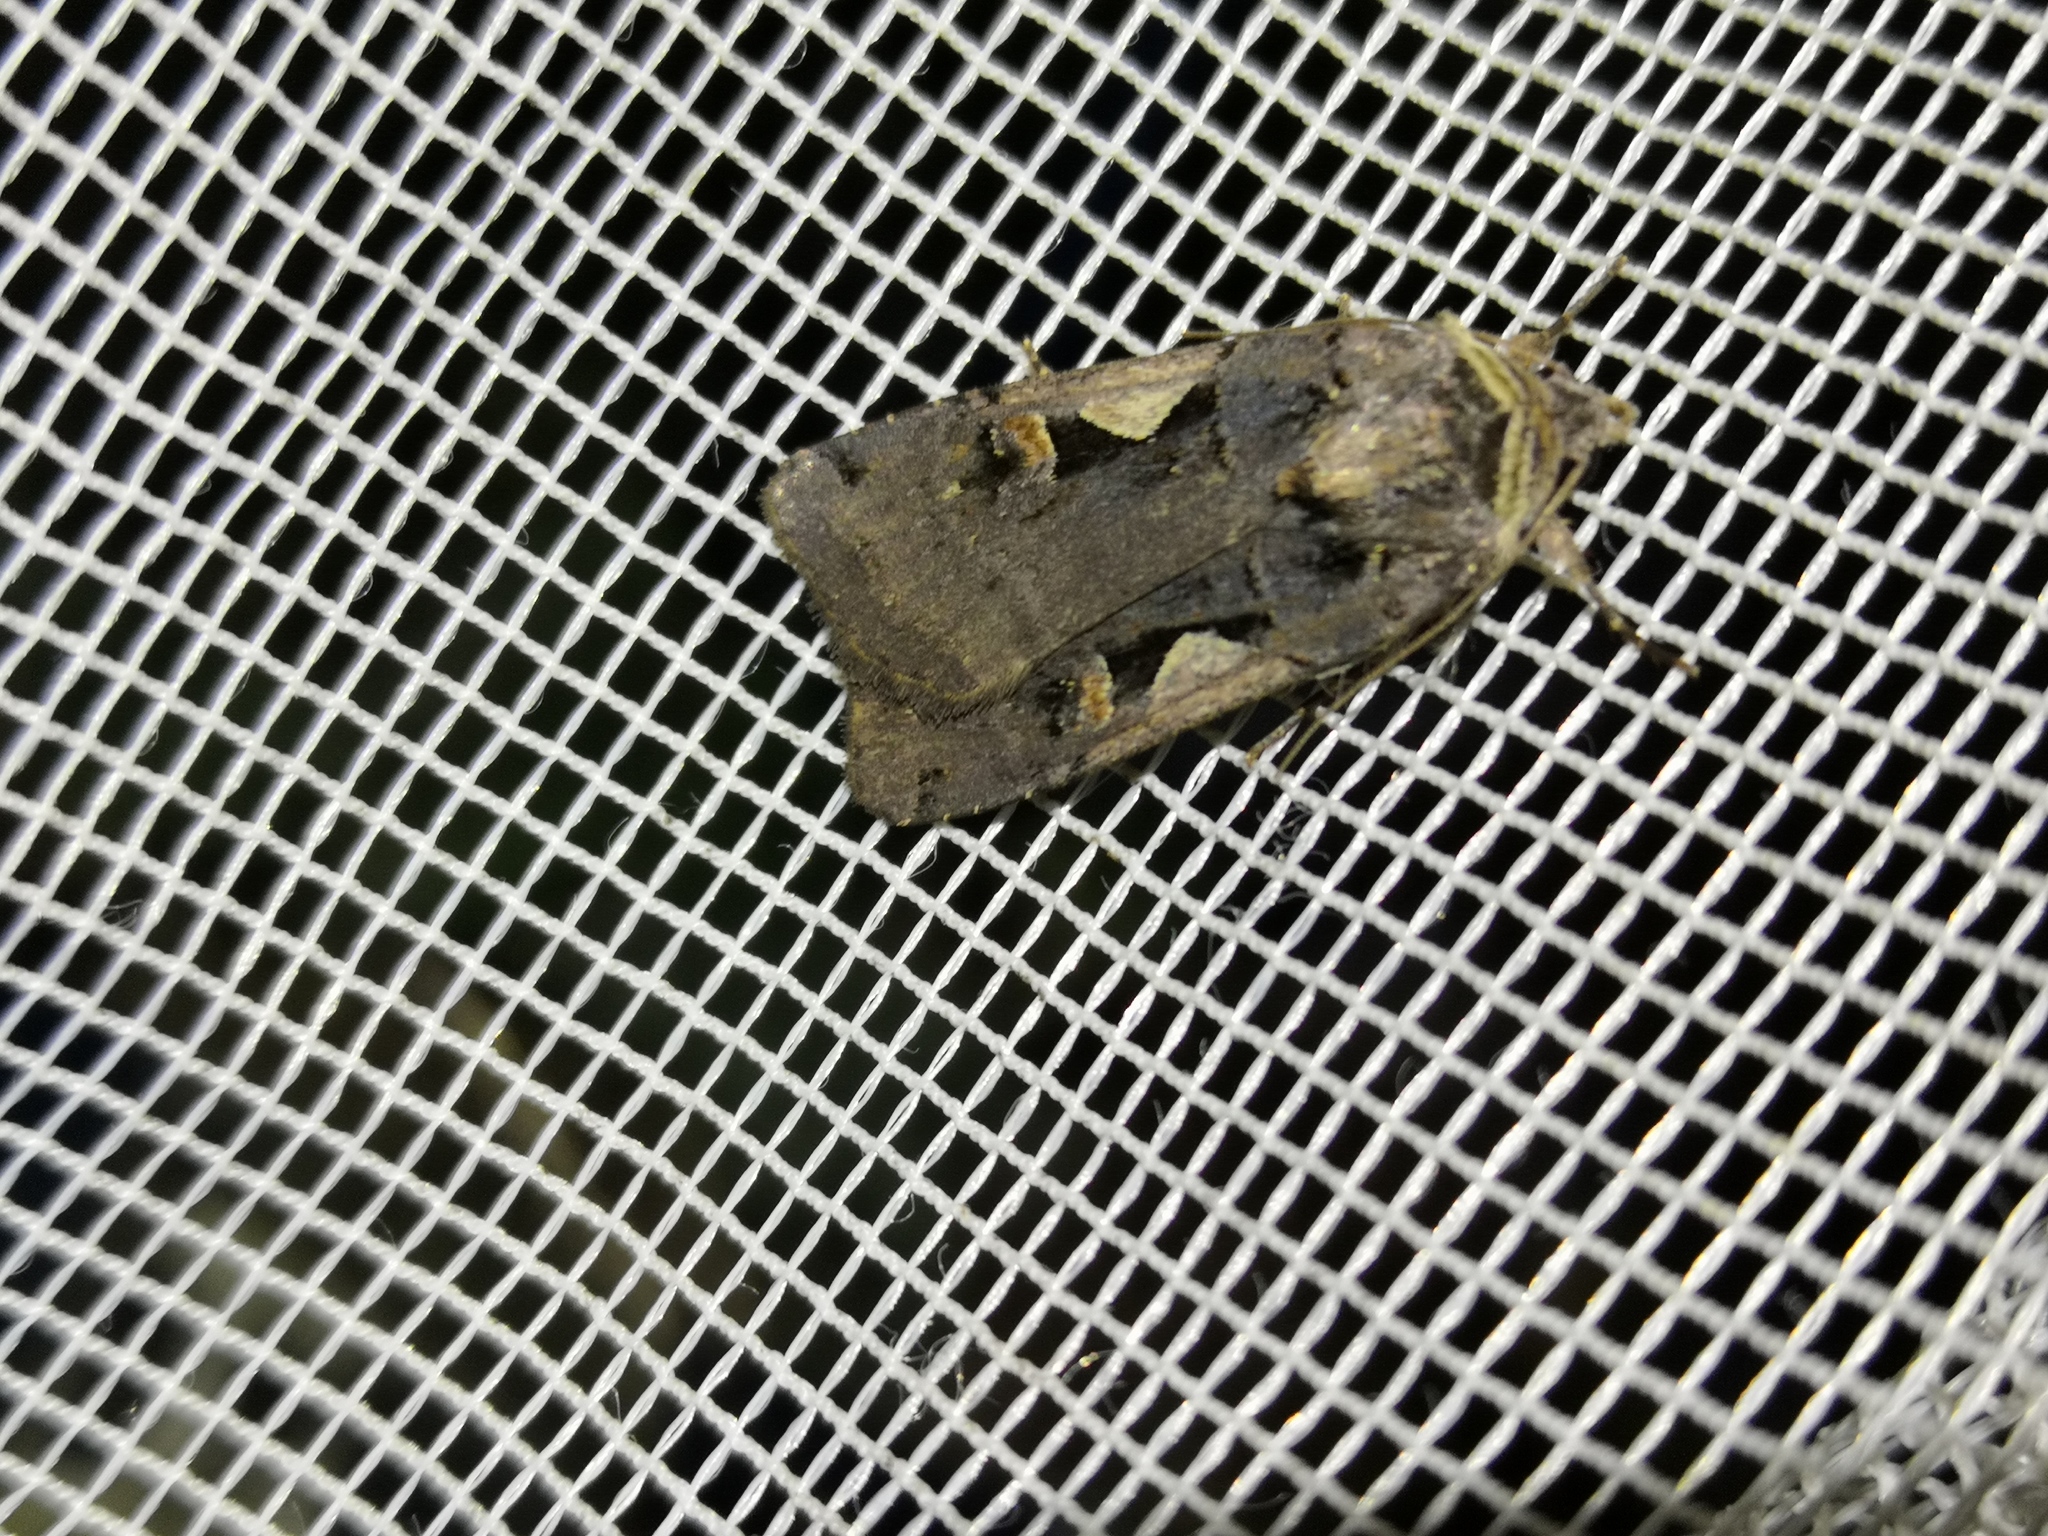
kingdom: Animalia
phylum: Arthropoda
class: Insecta
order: Lepidoptera
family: Noctuidae
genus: Xestia
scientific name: Xestia c-nigrum
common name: Setaceous hebrew character
